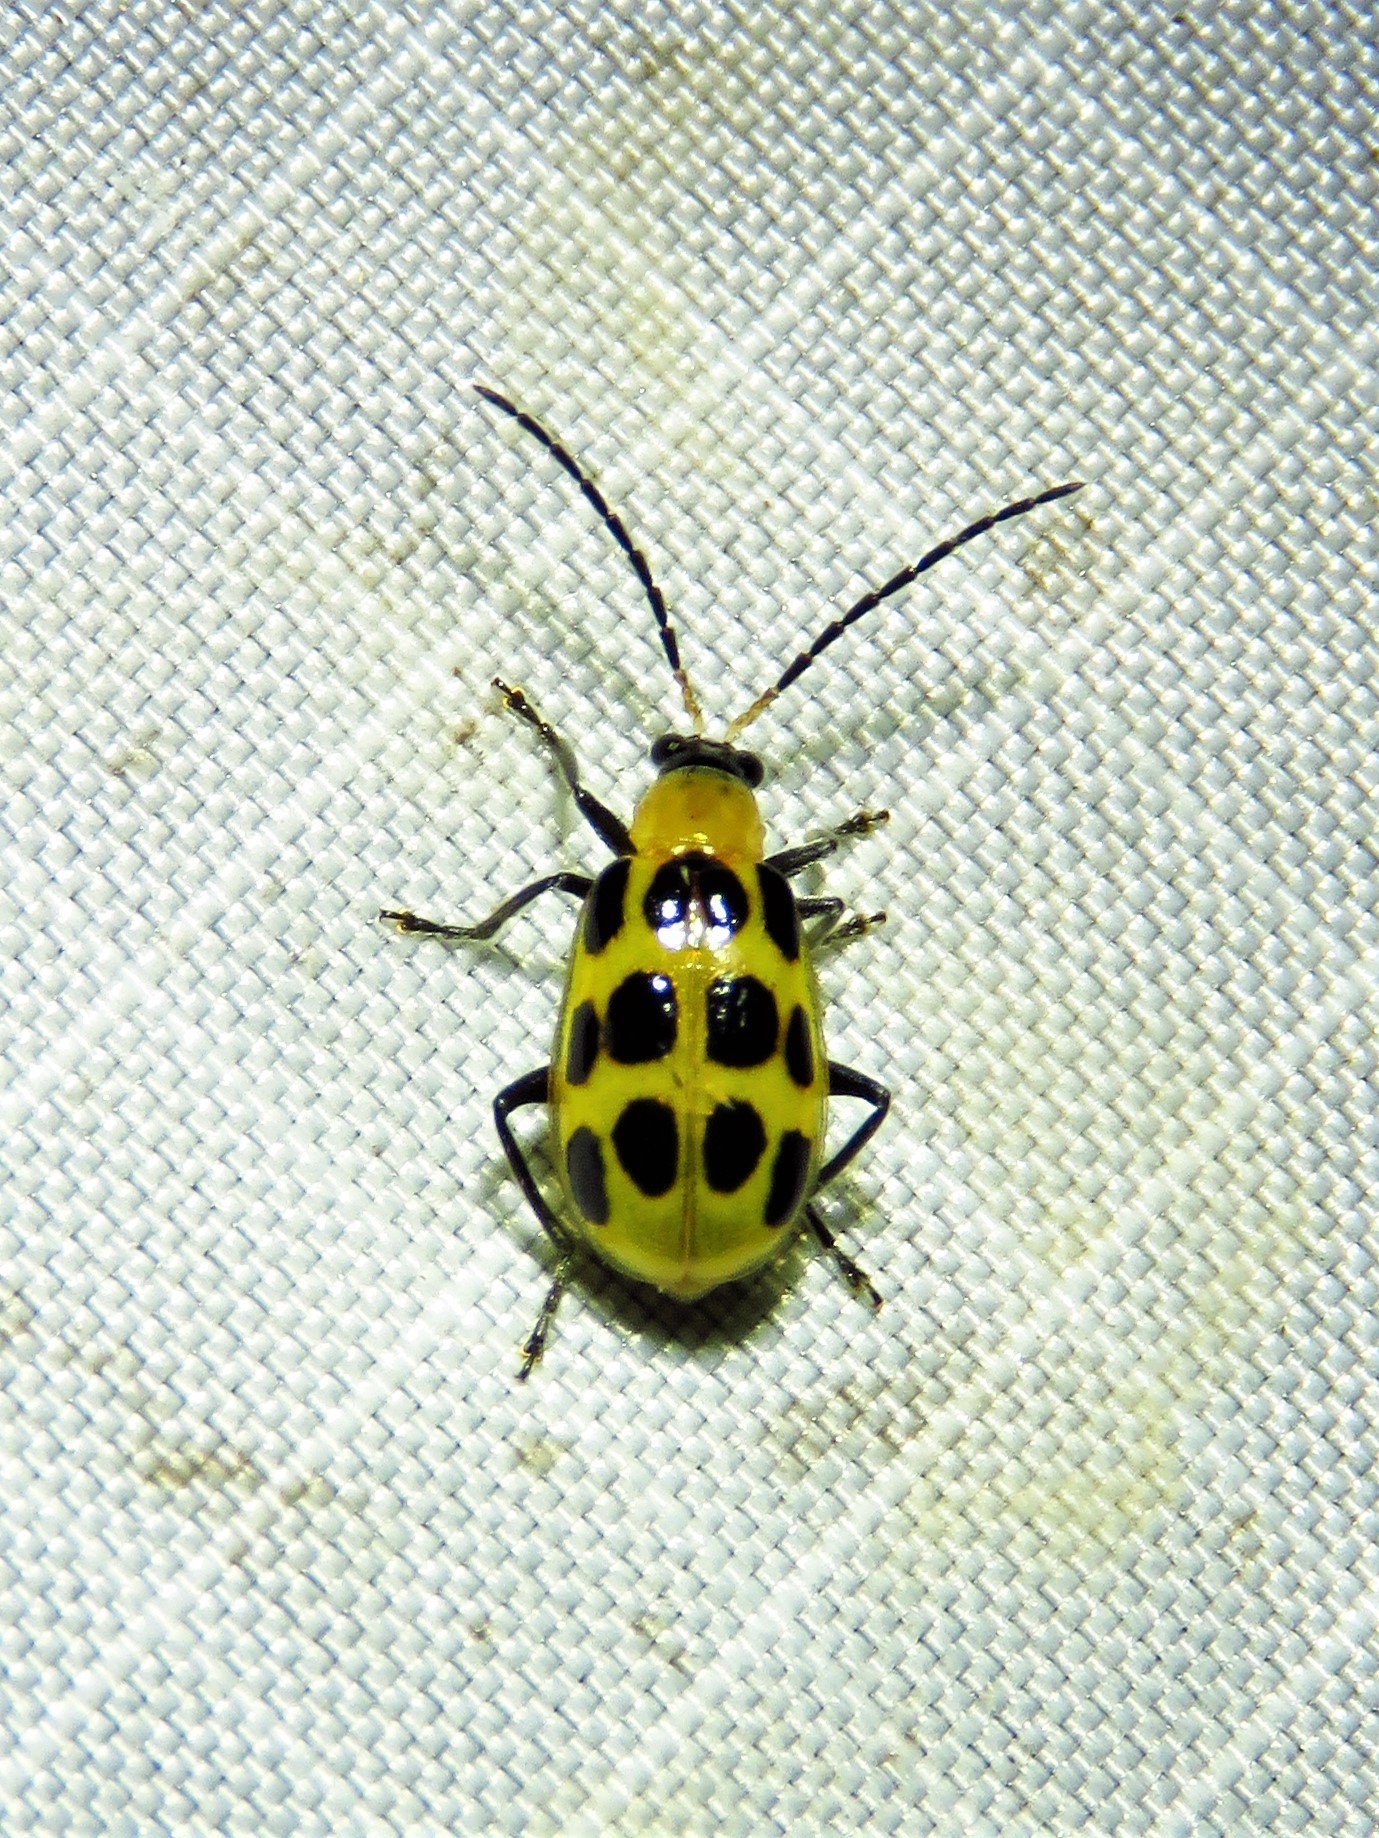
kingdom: Animalia
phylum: Arthropoda
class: Insecta
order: Coleoptera
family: Chrysomelidae
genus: Diabrotica
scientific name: Diabrotica undecimpunctata
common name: Spotted cucumber beetle
